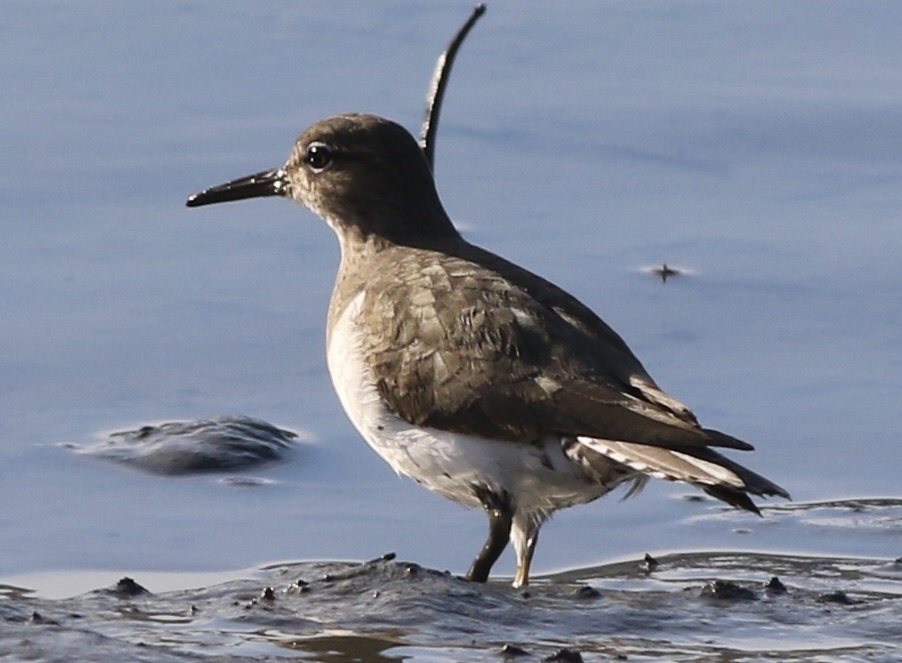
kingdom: Animalia
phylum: Chordata
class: Aves
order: Charadriiformes
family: Scolopacidae
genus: Actitis
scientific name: Actitis macularius
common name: Spotted sandpiper
